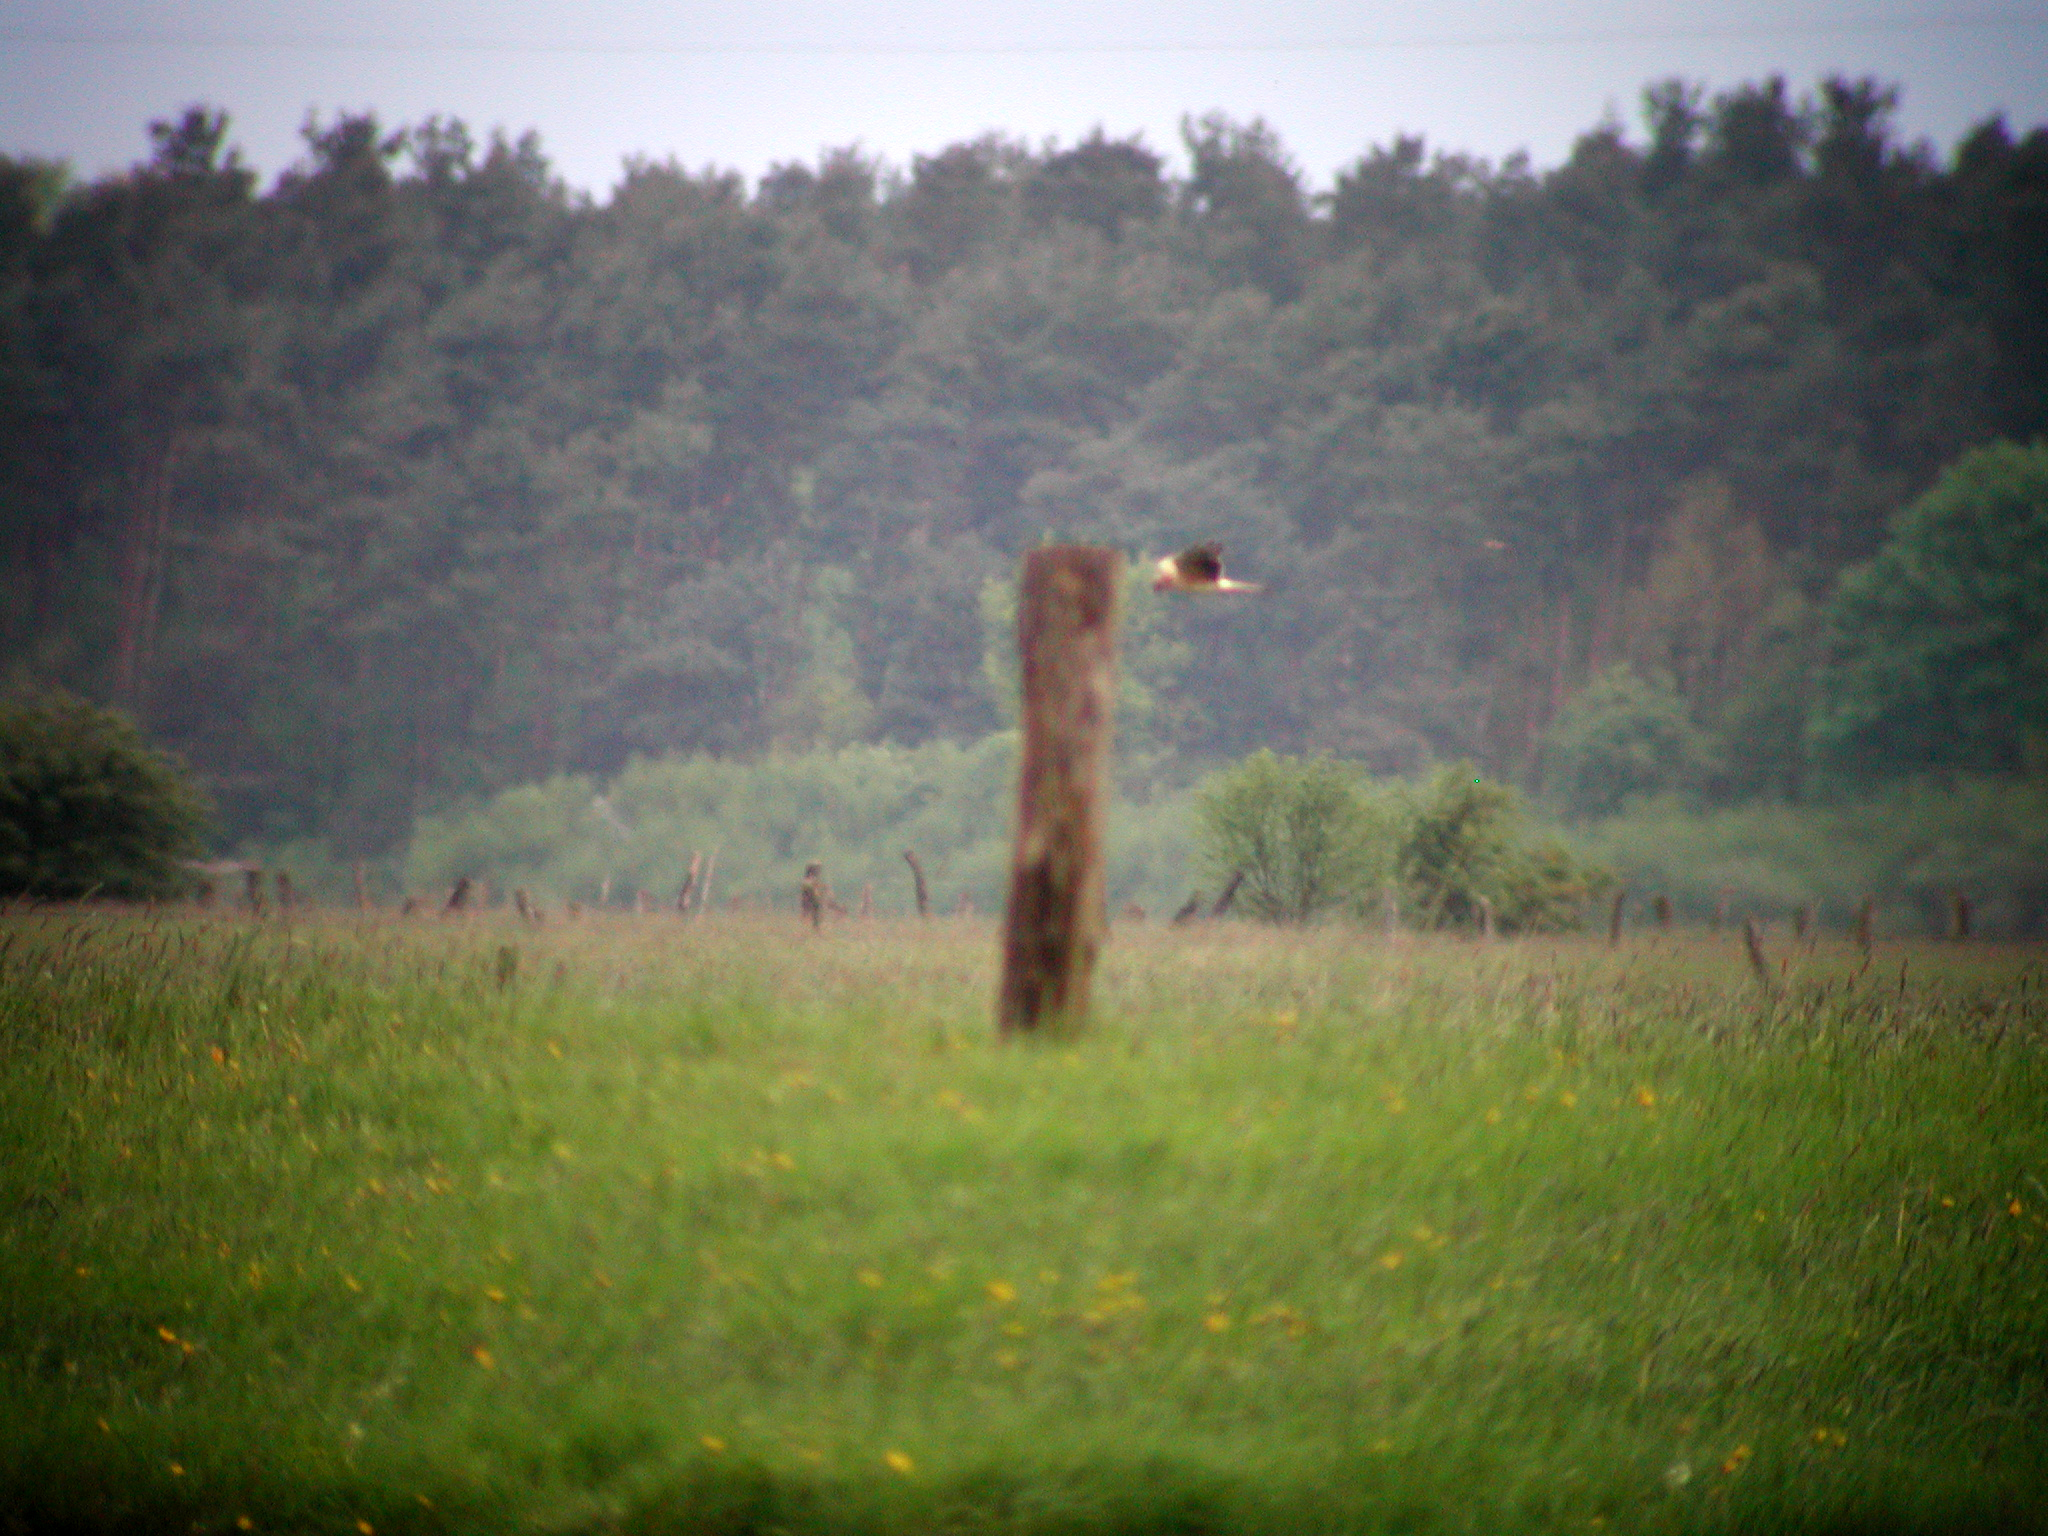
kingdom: Animalia
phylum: Chordata
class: Aves
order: Accipitriformes
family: Accipitridae
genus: Circus
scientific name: Circus macrourus
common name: Pallid harrier
